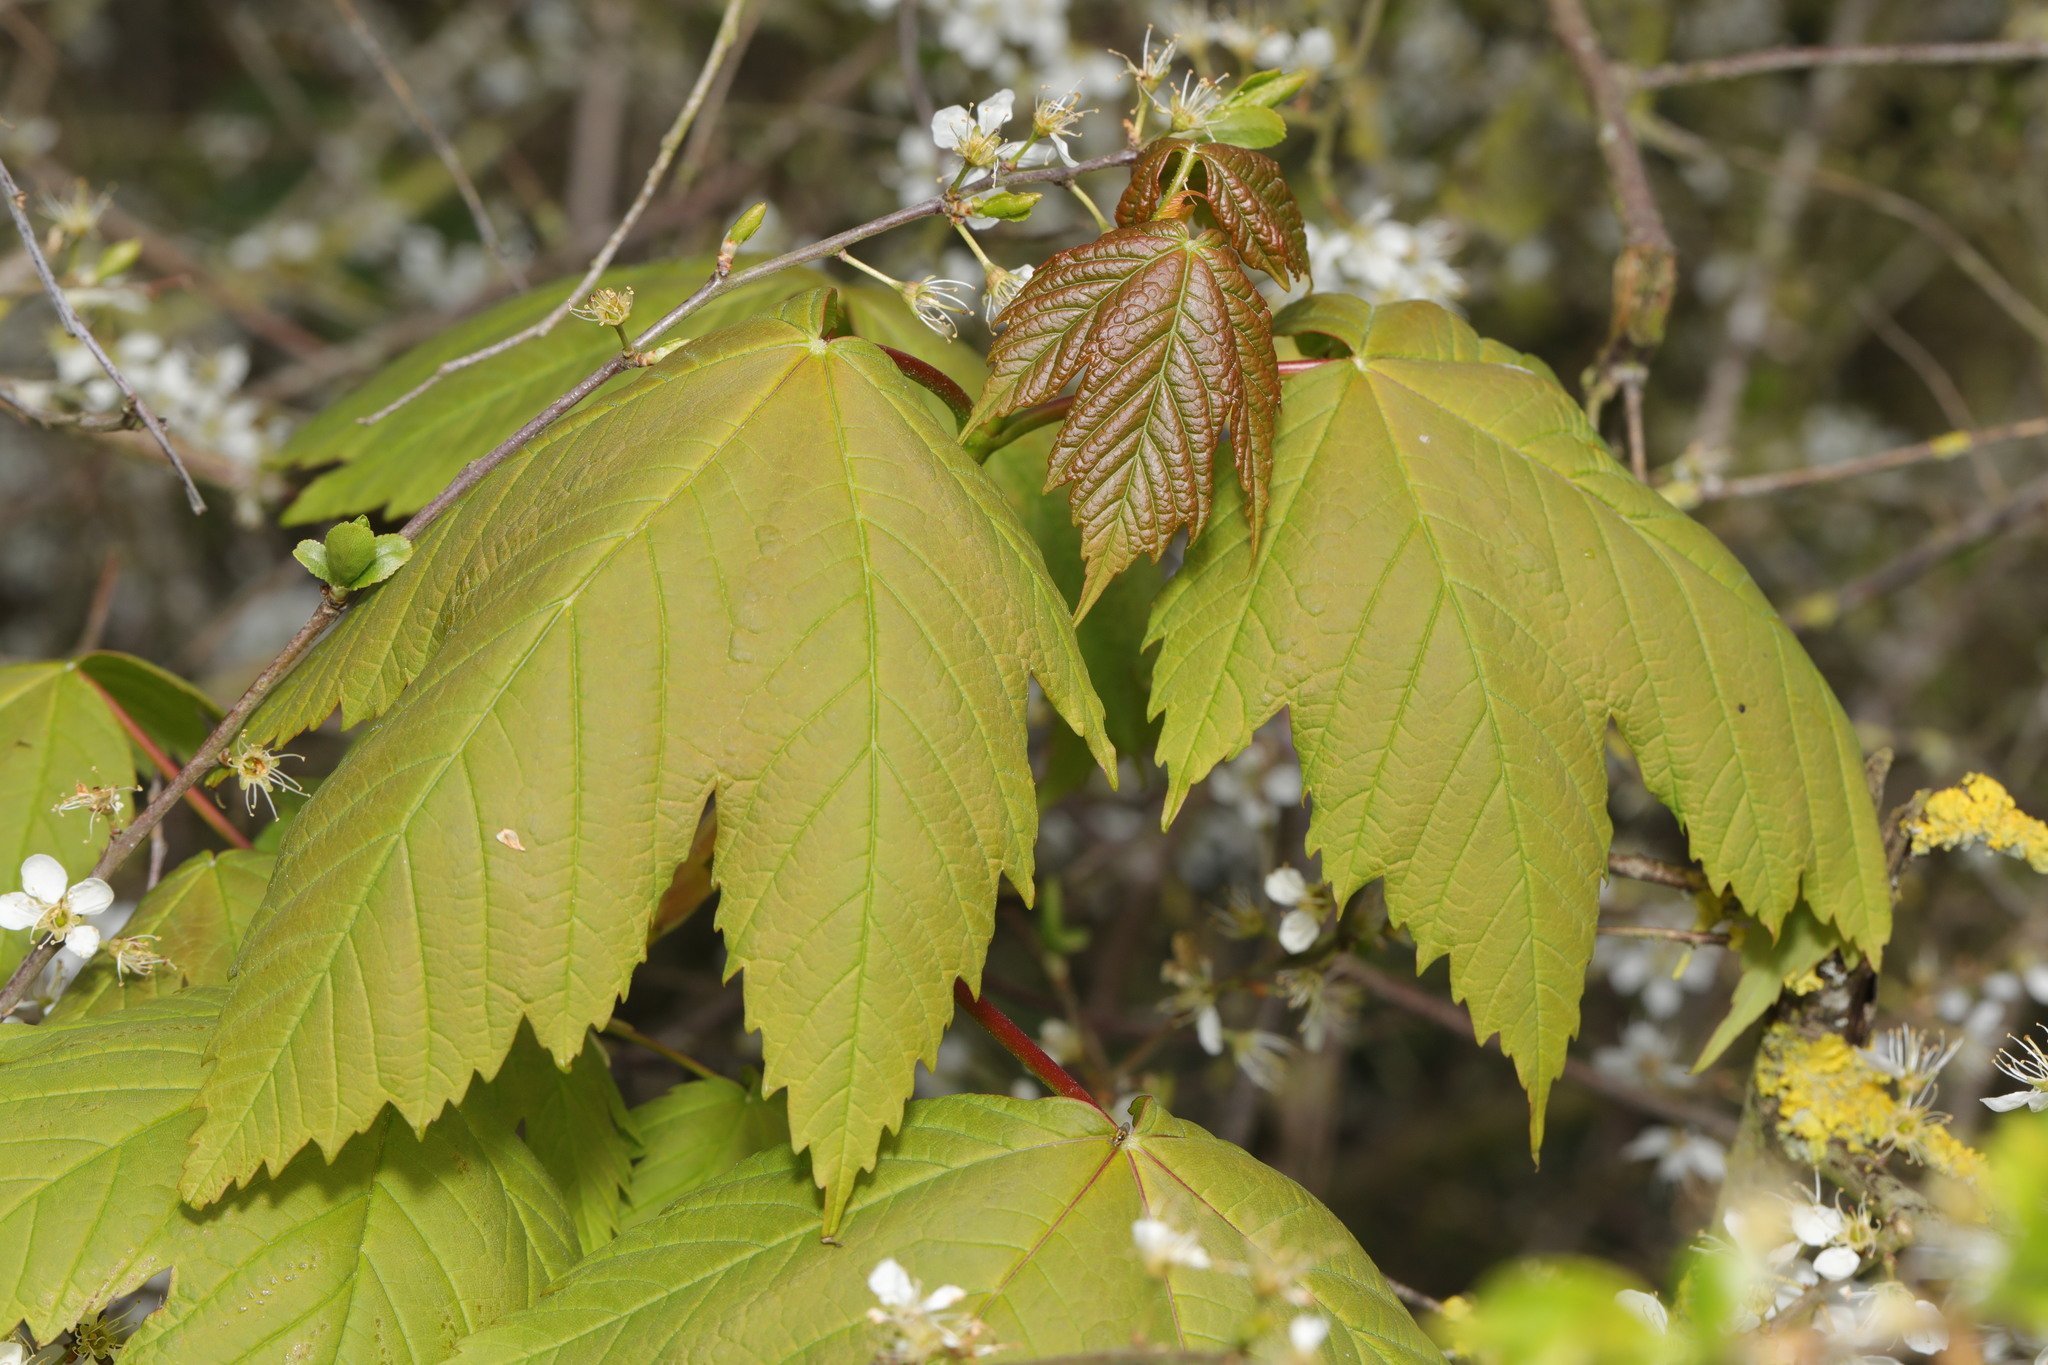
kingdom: Plantae
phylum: Tracheophyta
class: Magnoliopsida
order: Sapindales
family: Sapindaceae
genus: Acer
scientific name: Acer pseudoplatanus
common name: Sycamore
